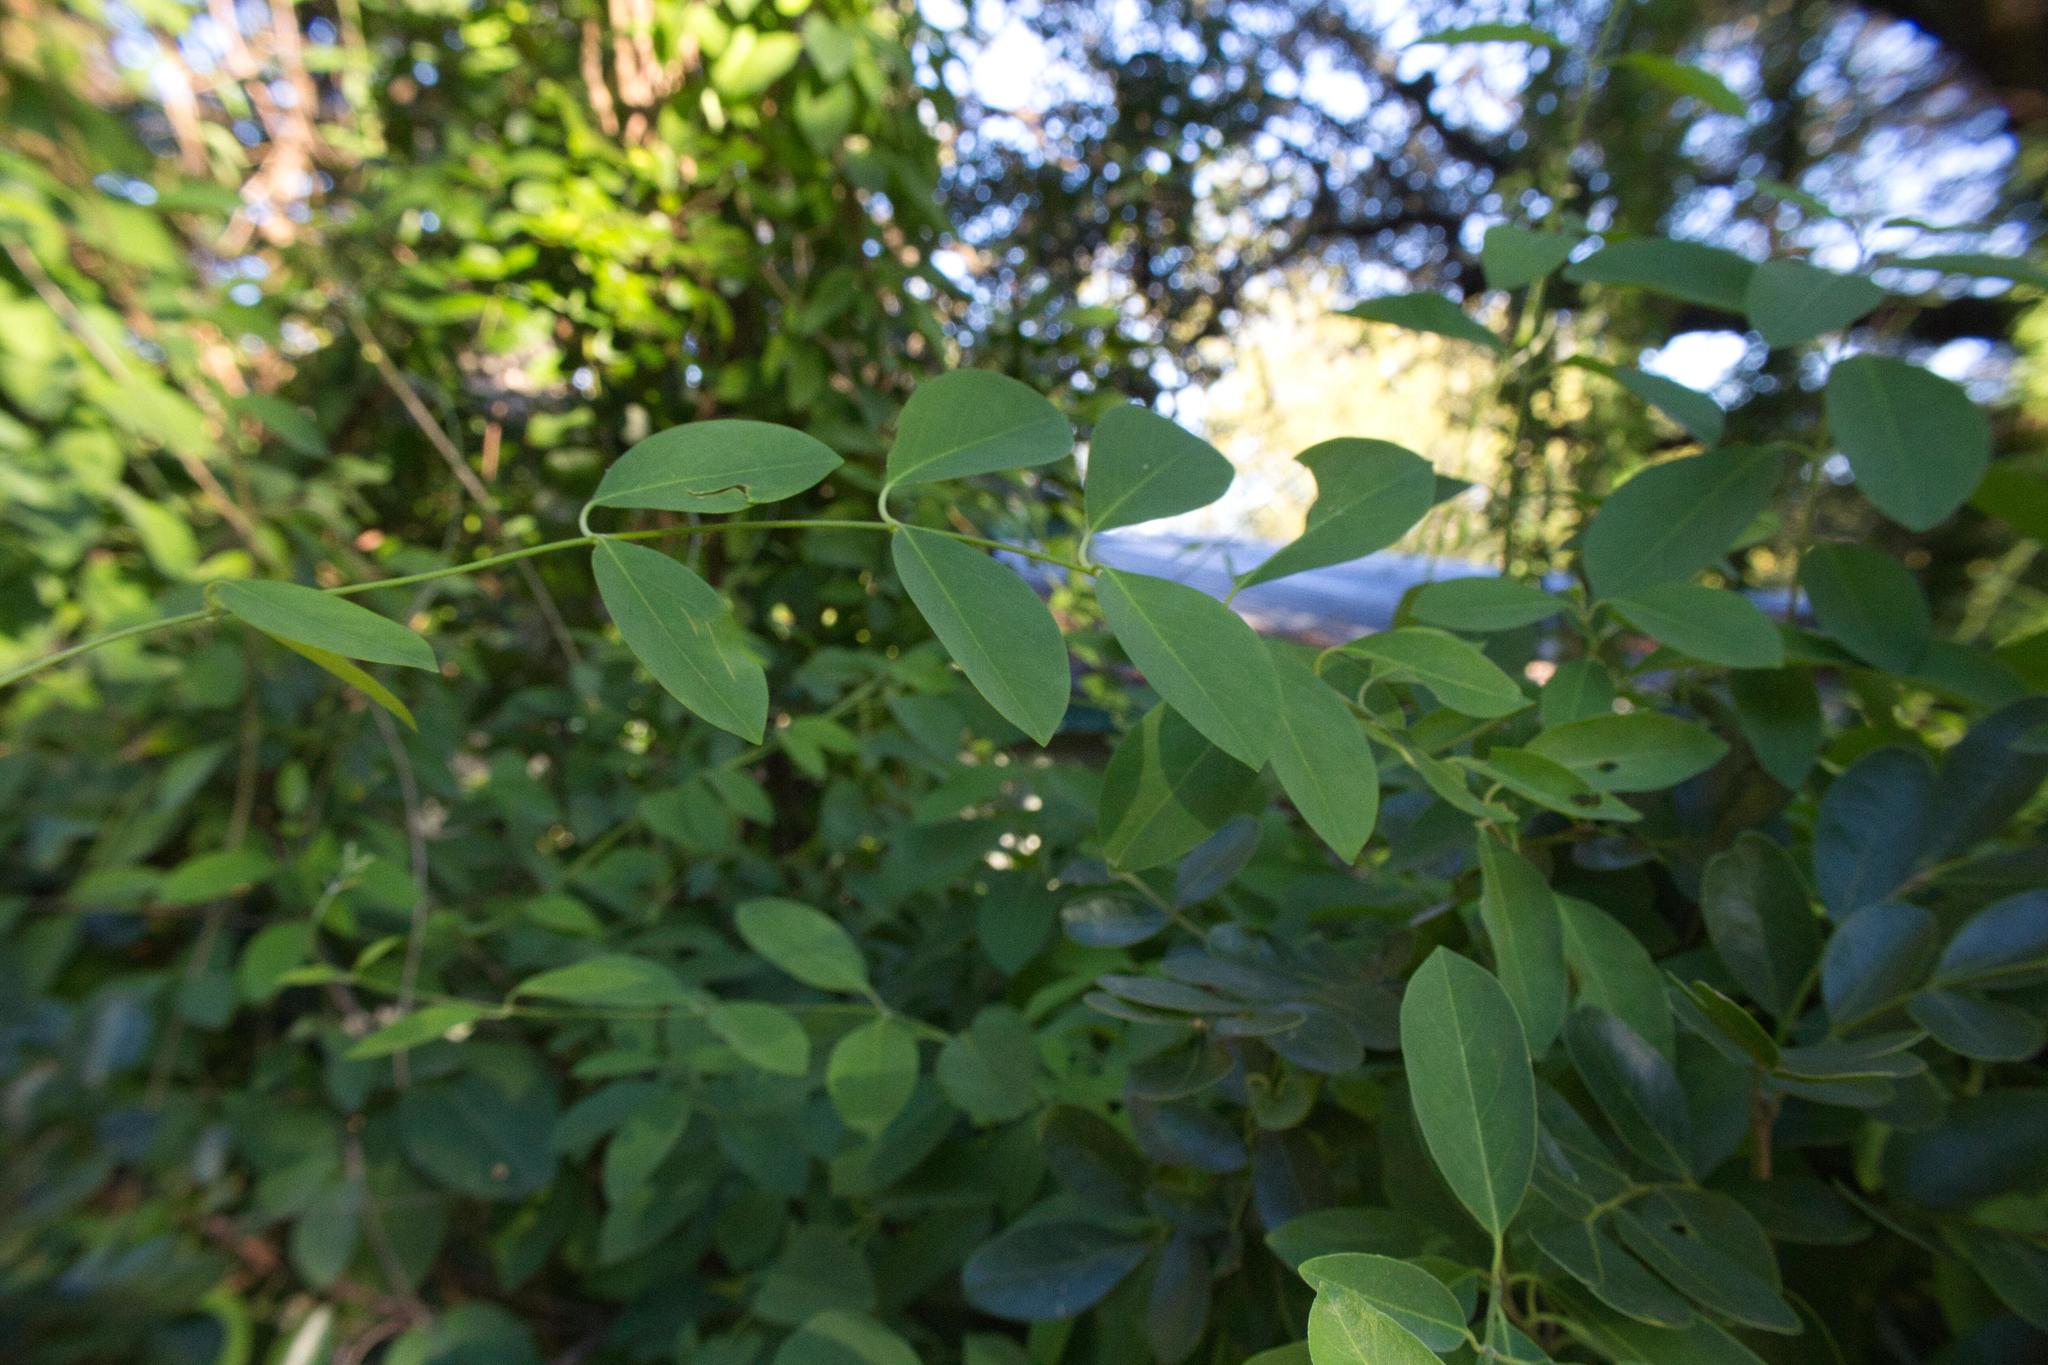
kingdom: Plantae
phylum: Tracheophyta
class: Magnoliopsida
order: Malpighiales
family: Malpighiaceae
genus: Callaeum
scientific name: Callaeum macropterum
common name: Mexican butterfly-vine
